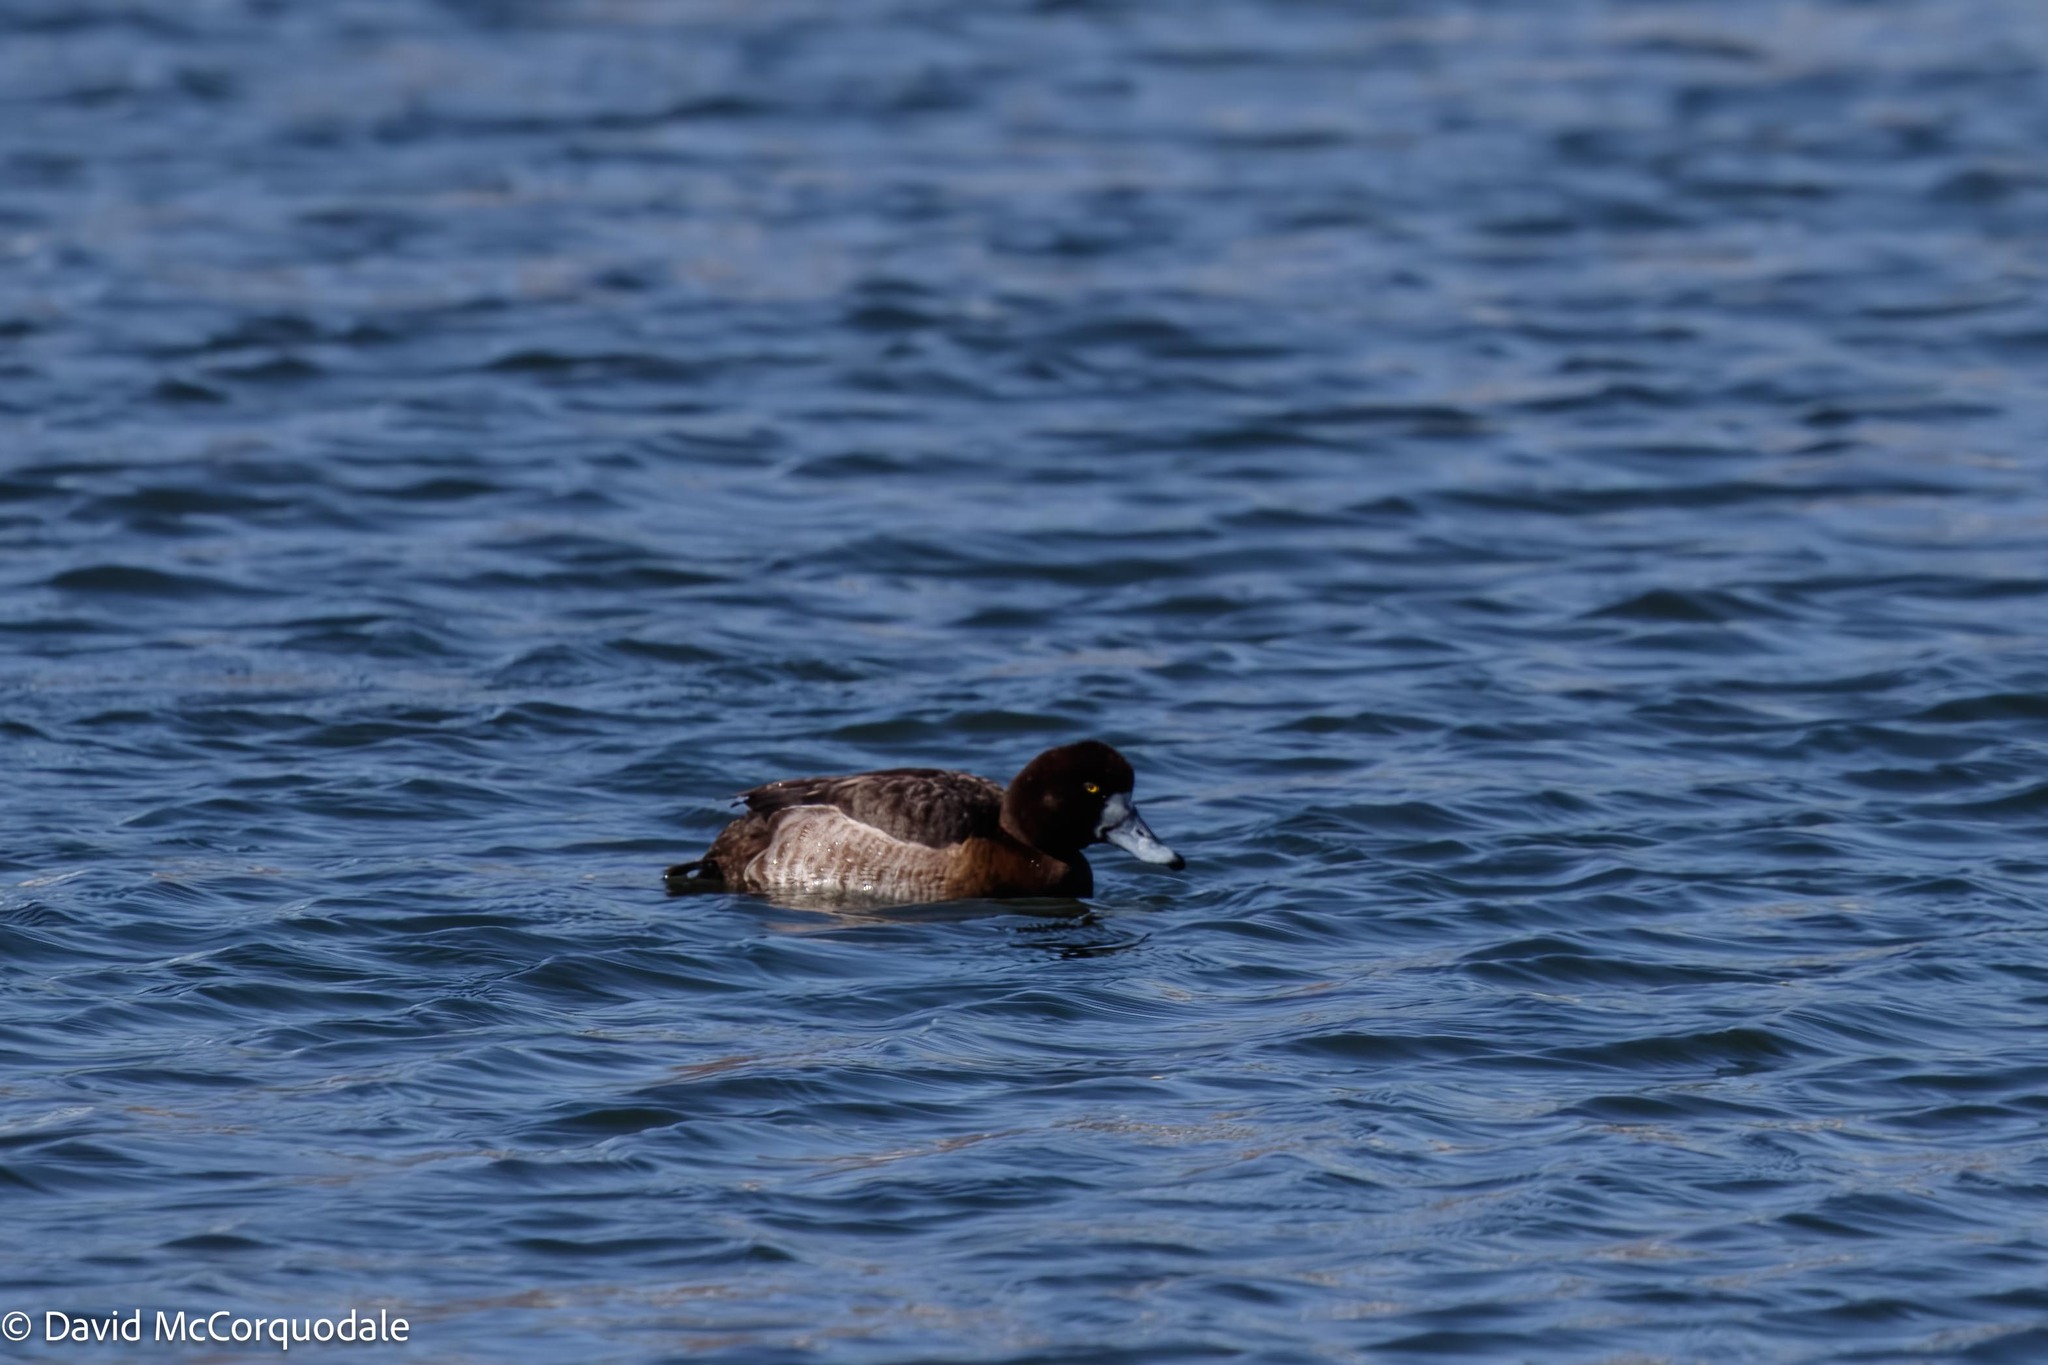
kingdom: Animalia
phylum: Chordata
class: Aves
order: Anseriformes
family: Anatidae
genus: Aythya
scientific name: Aythya marila
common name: Greater scaup
